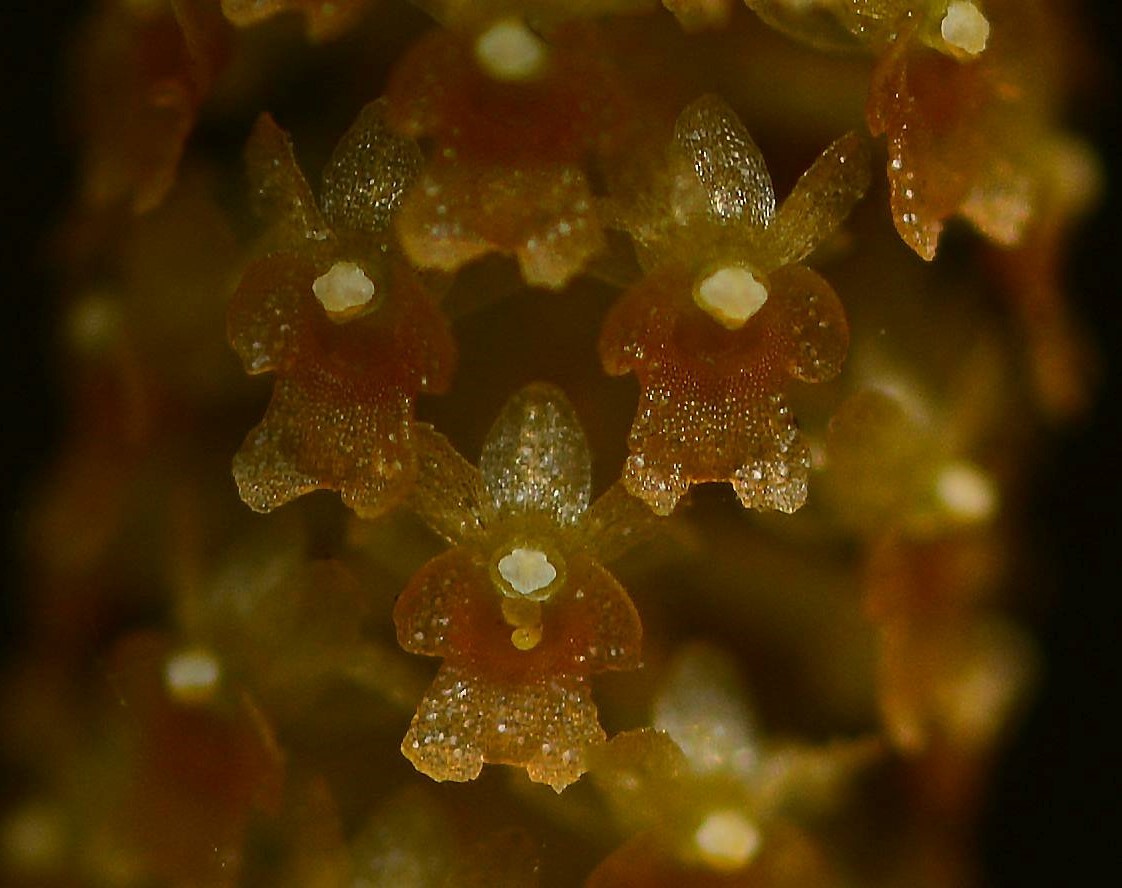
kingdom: Plantae
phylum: Tracheophyta
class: Liliopsida
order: Asparagales
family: Orchidaceae
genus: Oberonia
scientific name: Oberonia brachystachys
